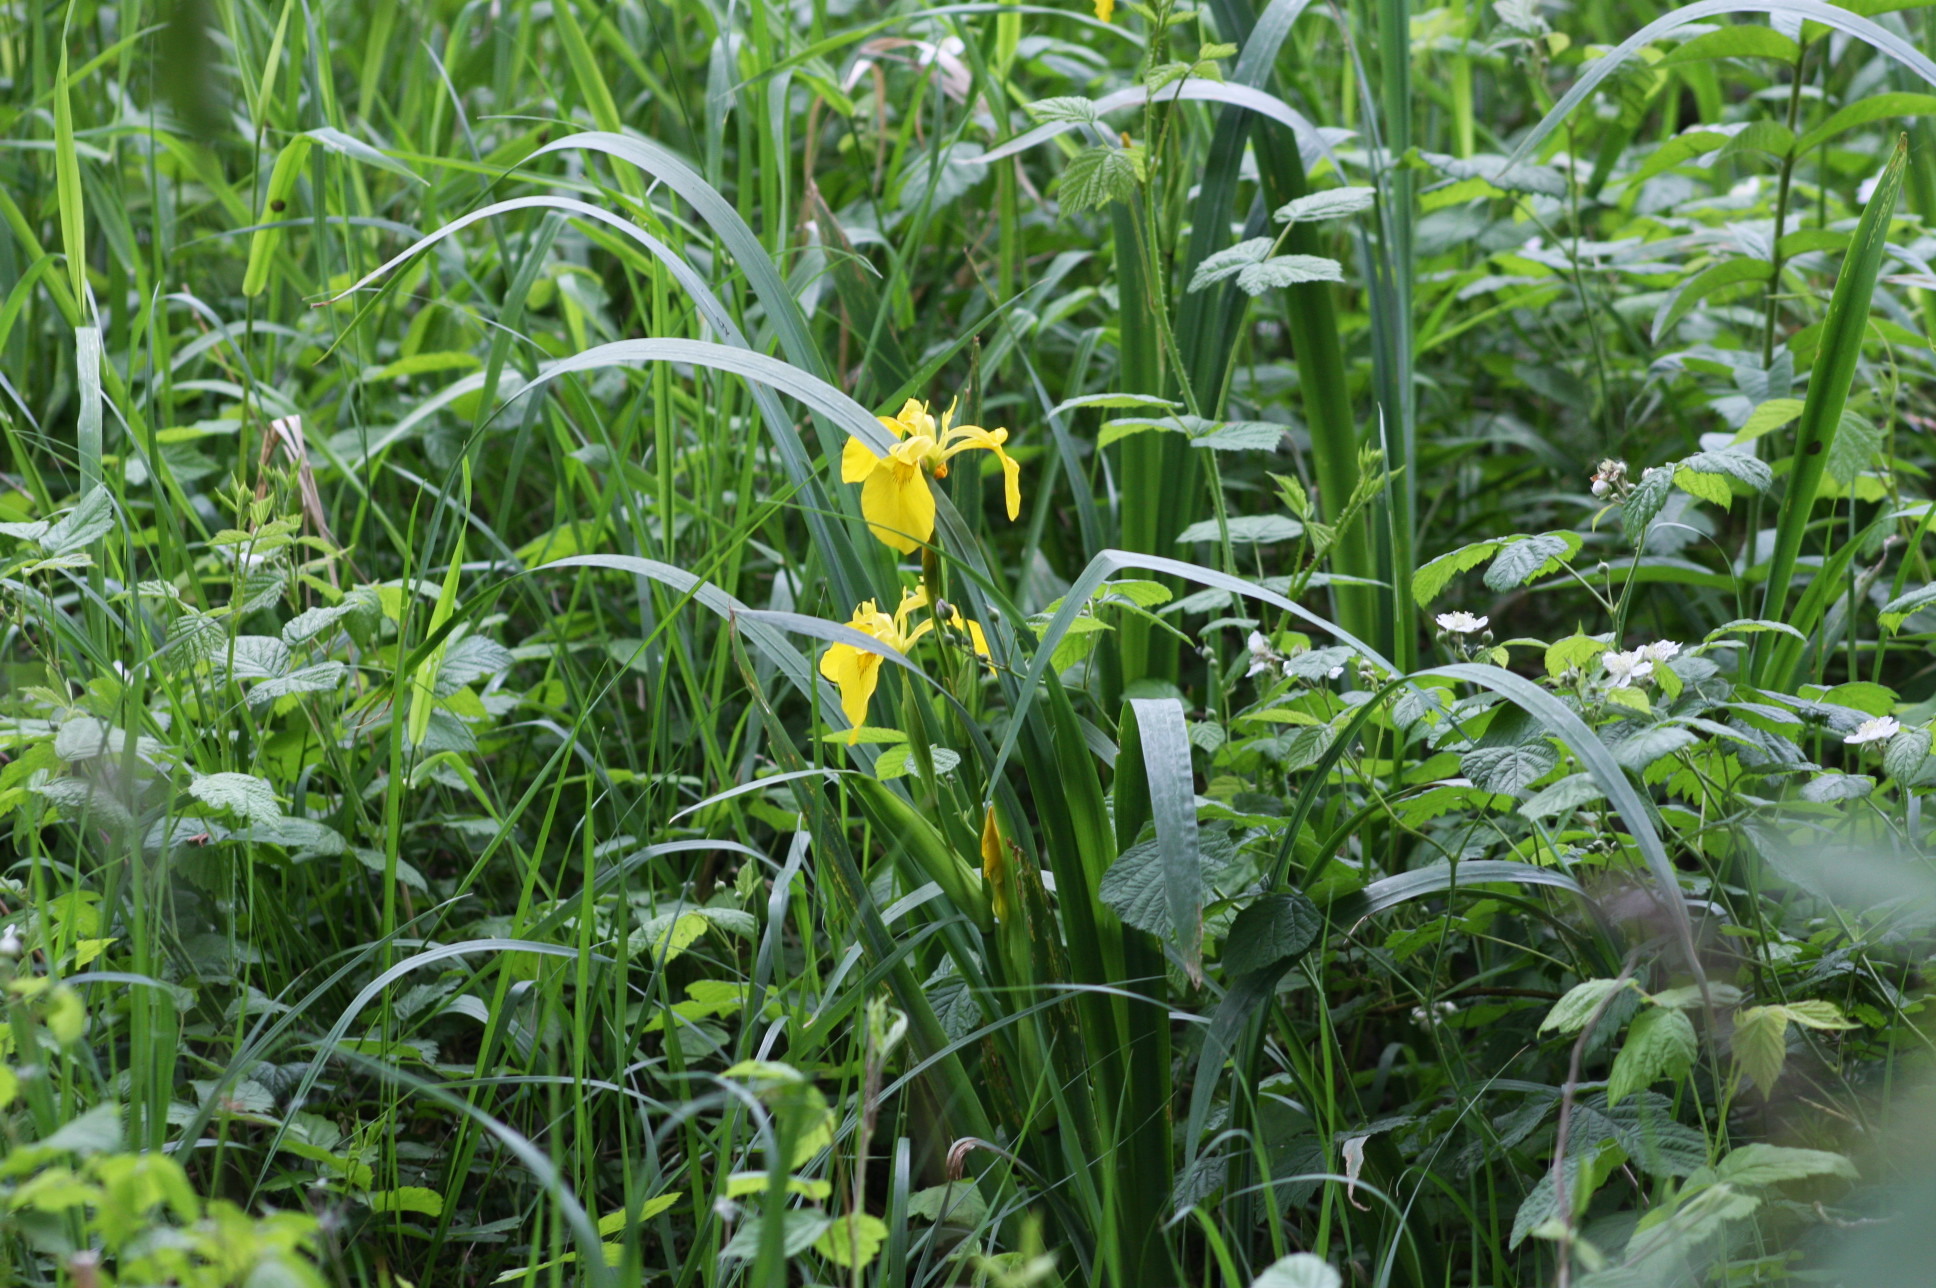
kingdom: Plantae
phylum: Tracheophyta
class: Liliopsida
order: Asparagales
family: Iridaceae
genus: Iris
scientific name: Iris pseudacorus
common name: Yellow flag
